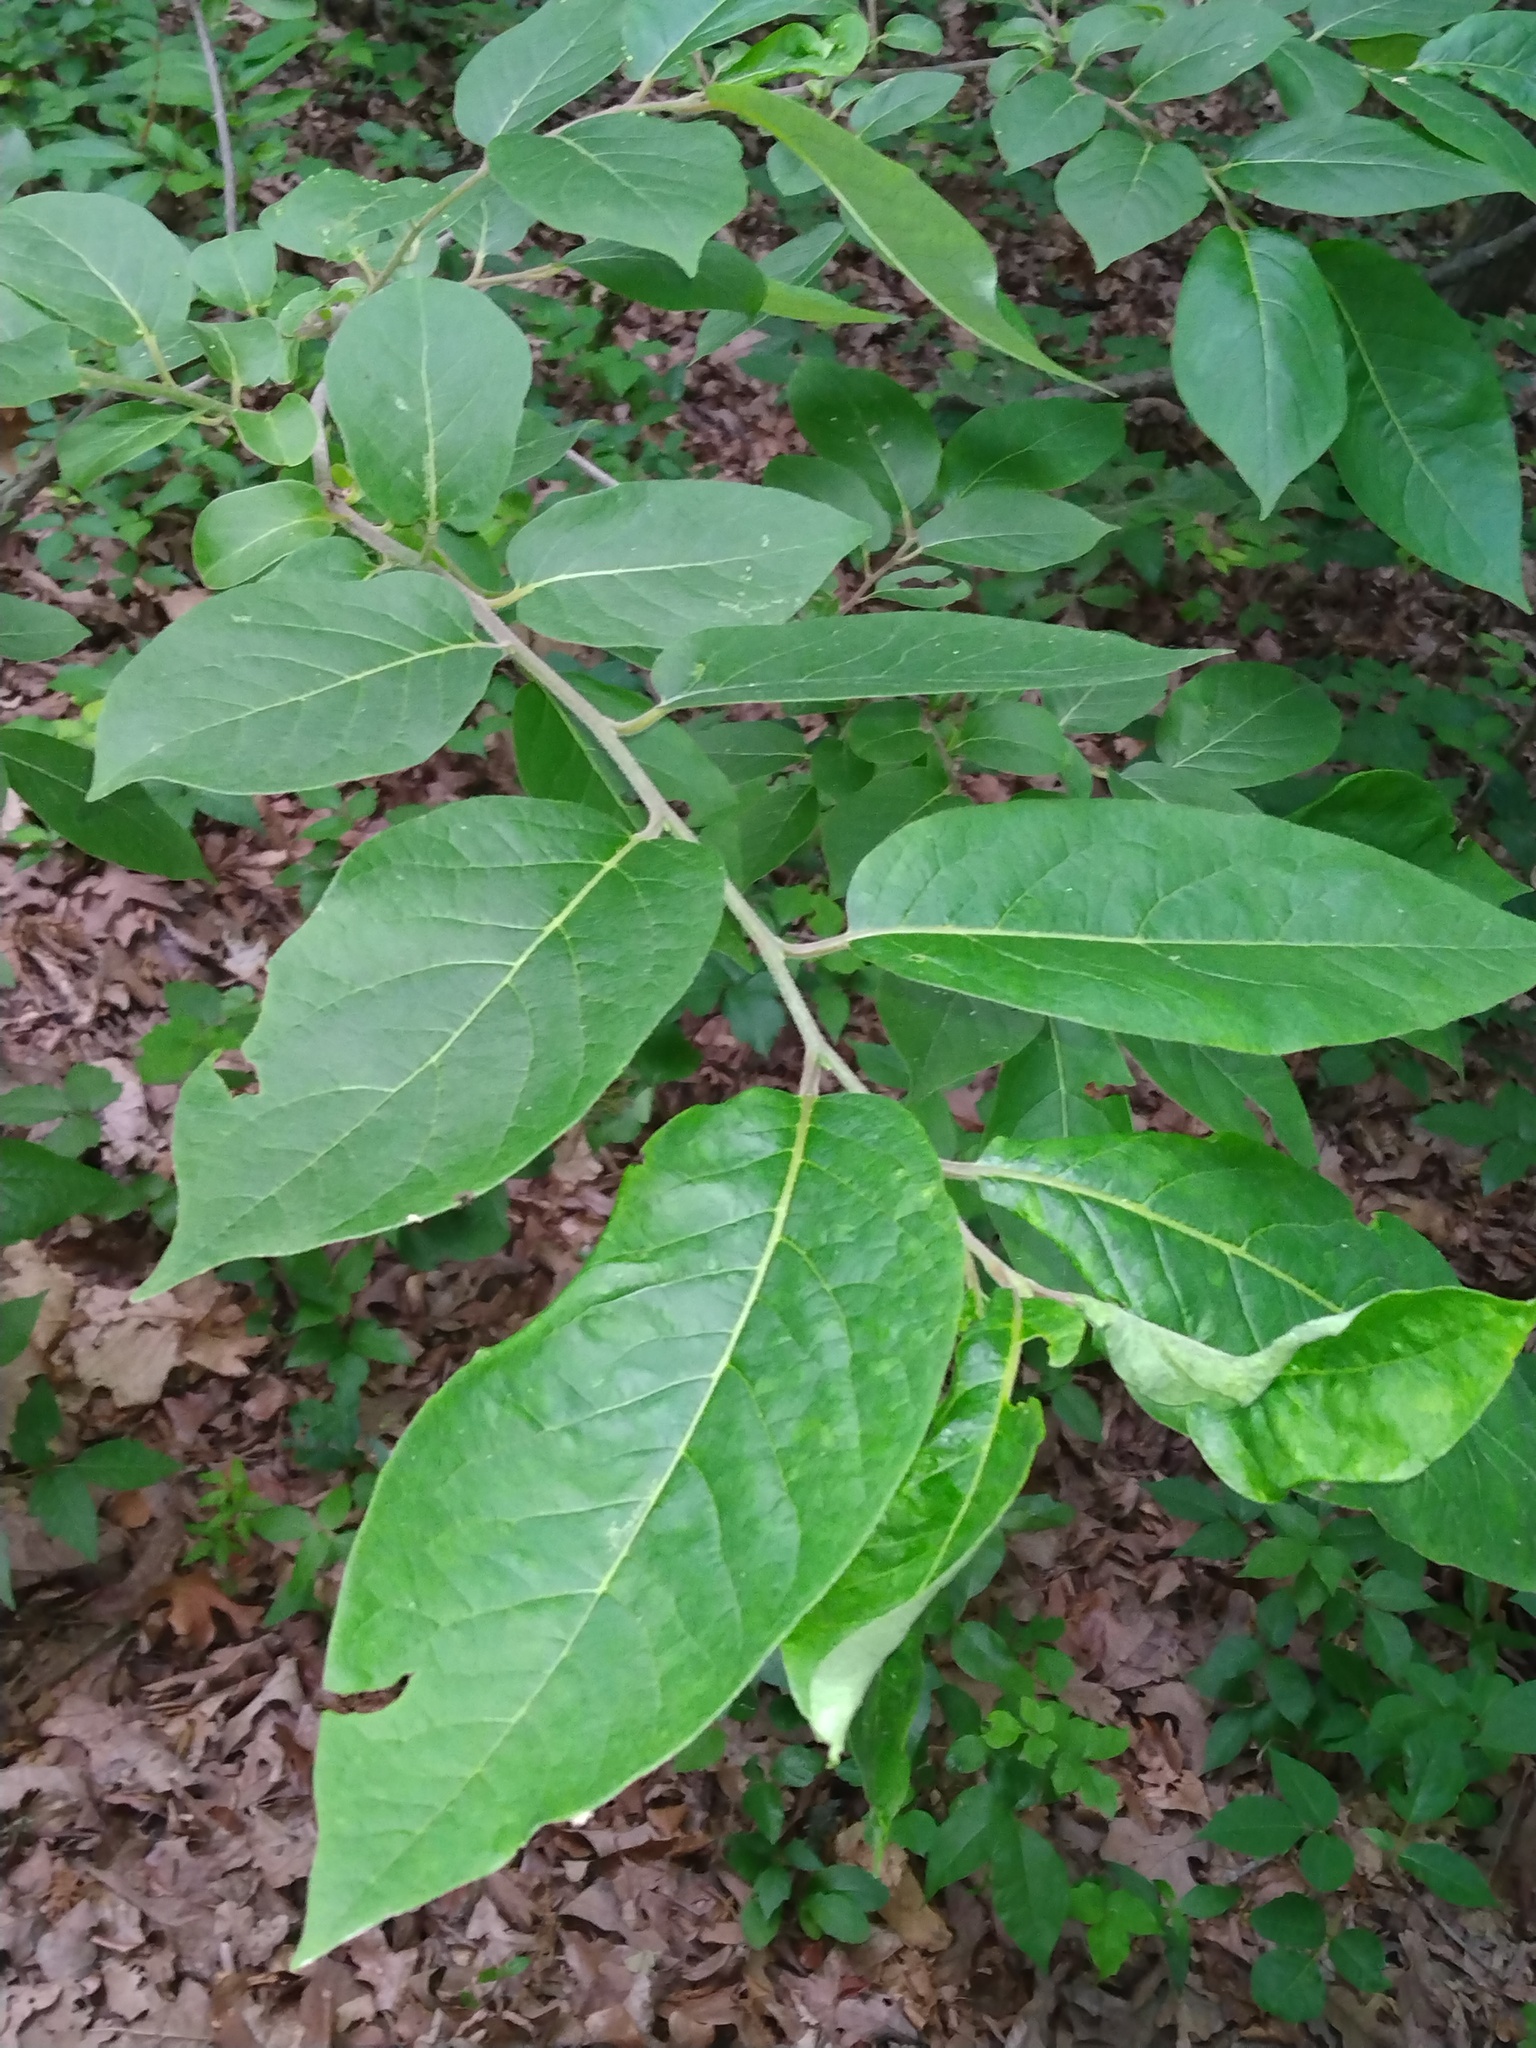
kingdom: Plantae
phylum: Tracheophyta
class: Magnoliopsida
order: Ericales
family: Ebenaceae
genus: Diospyros
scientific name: Diospyros virginiana
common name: Persimmon
